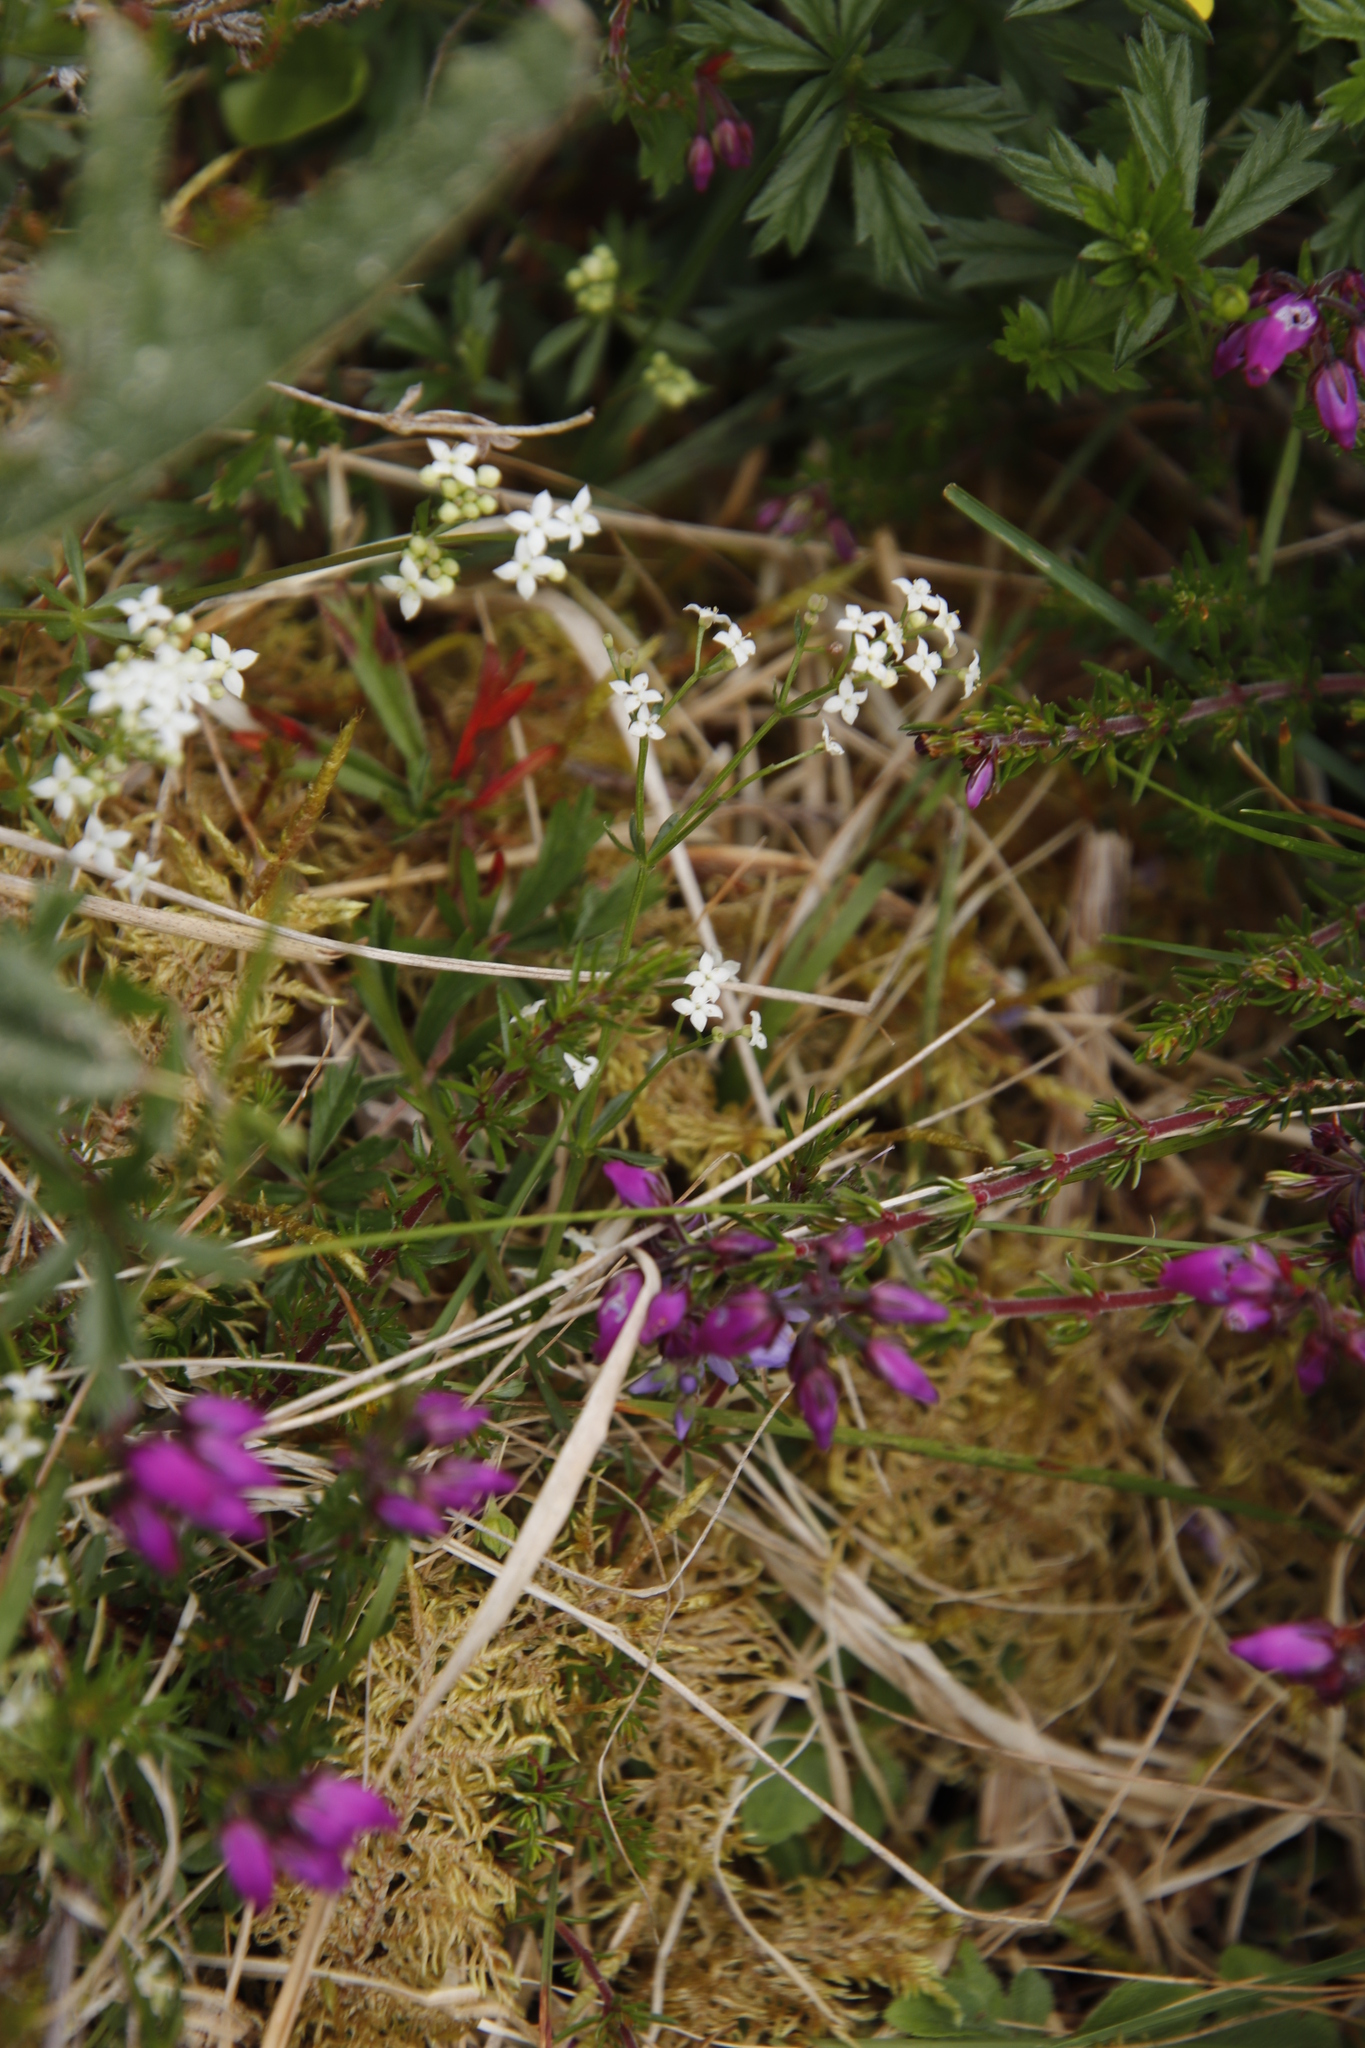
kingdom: Plantae
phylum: Tracheophyta
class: Magnoliopsida
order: Gentianales
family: Rubiaceae
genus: Galium
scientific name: Galium saxatile
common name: Heath bedstraw
